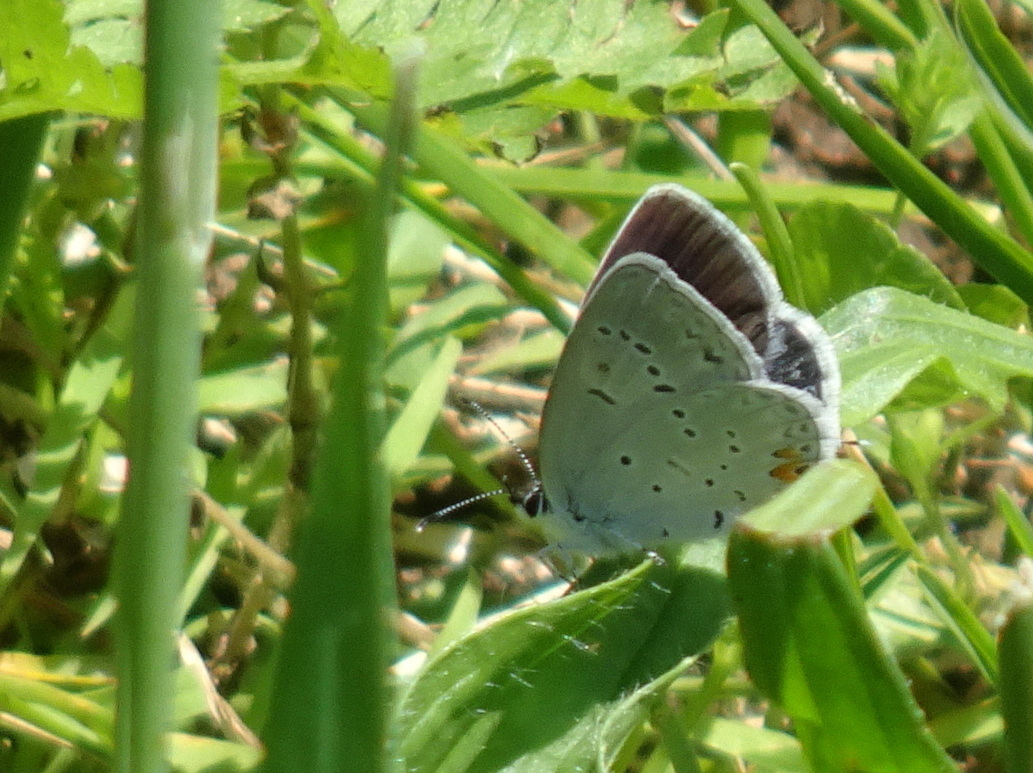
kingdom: Animalia
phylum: Arthropoda
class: Insecta
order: Lepidoptera
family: Lycaenidae
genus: Elkalyce
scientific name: Elkalyce comyntas
